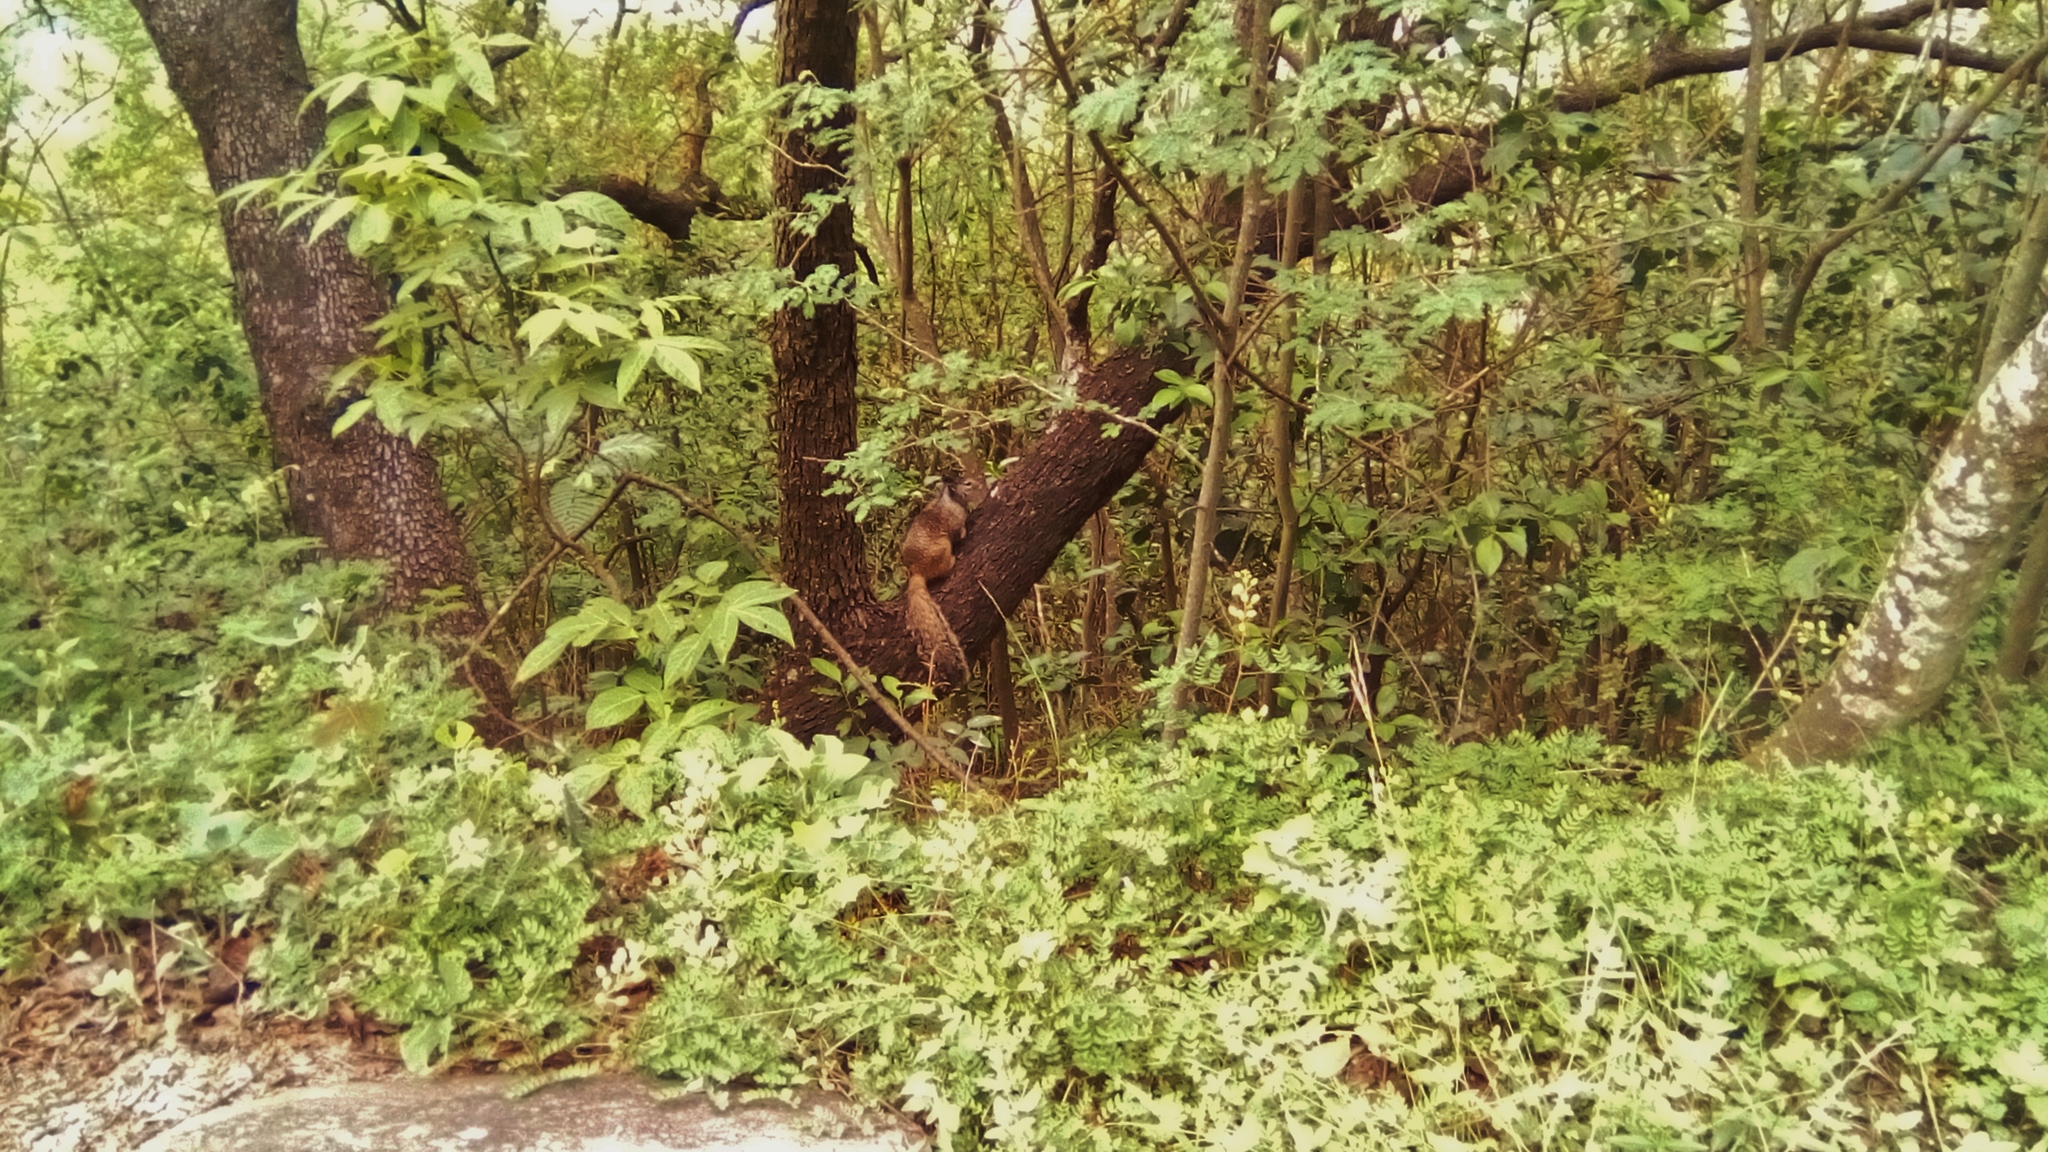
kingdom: Animalia
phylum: Chordata
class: Mammalia
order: Rodentia
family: Sciuridae
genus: Otospermophilus
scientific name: Otospermophilus variegatus
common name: Rock squirrel
